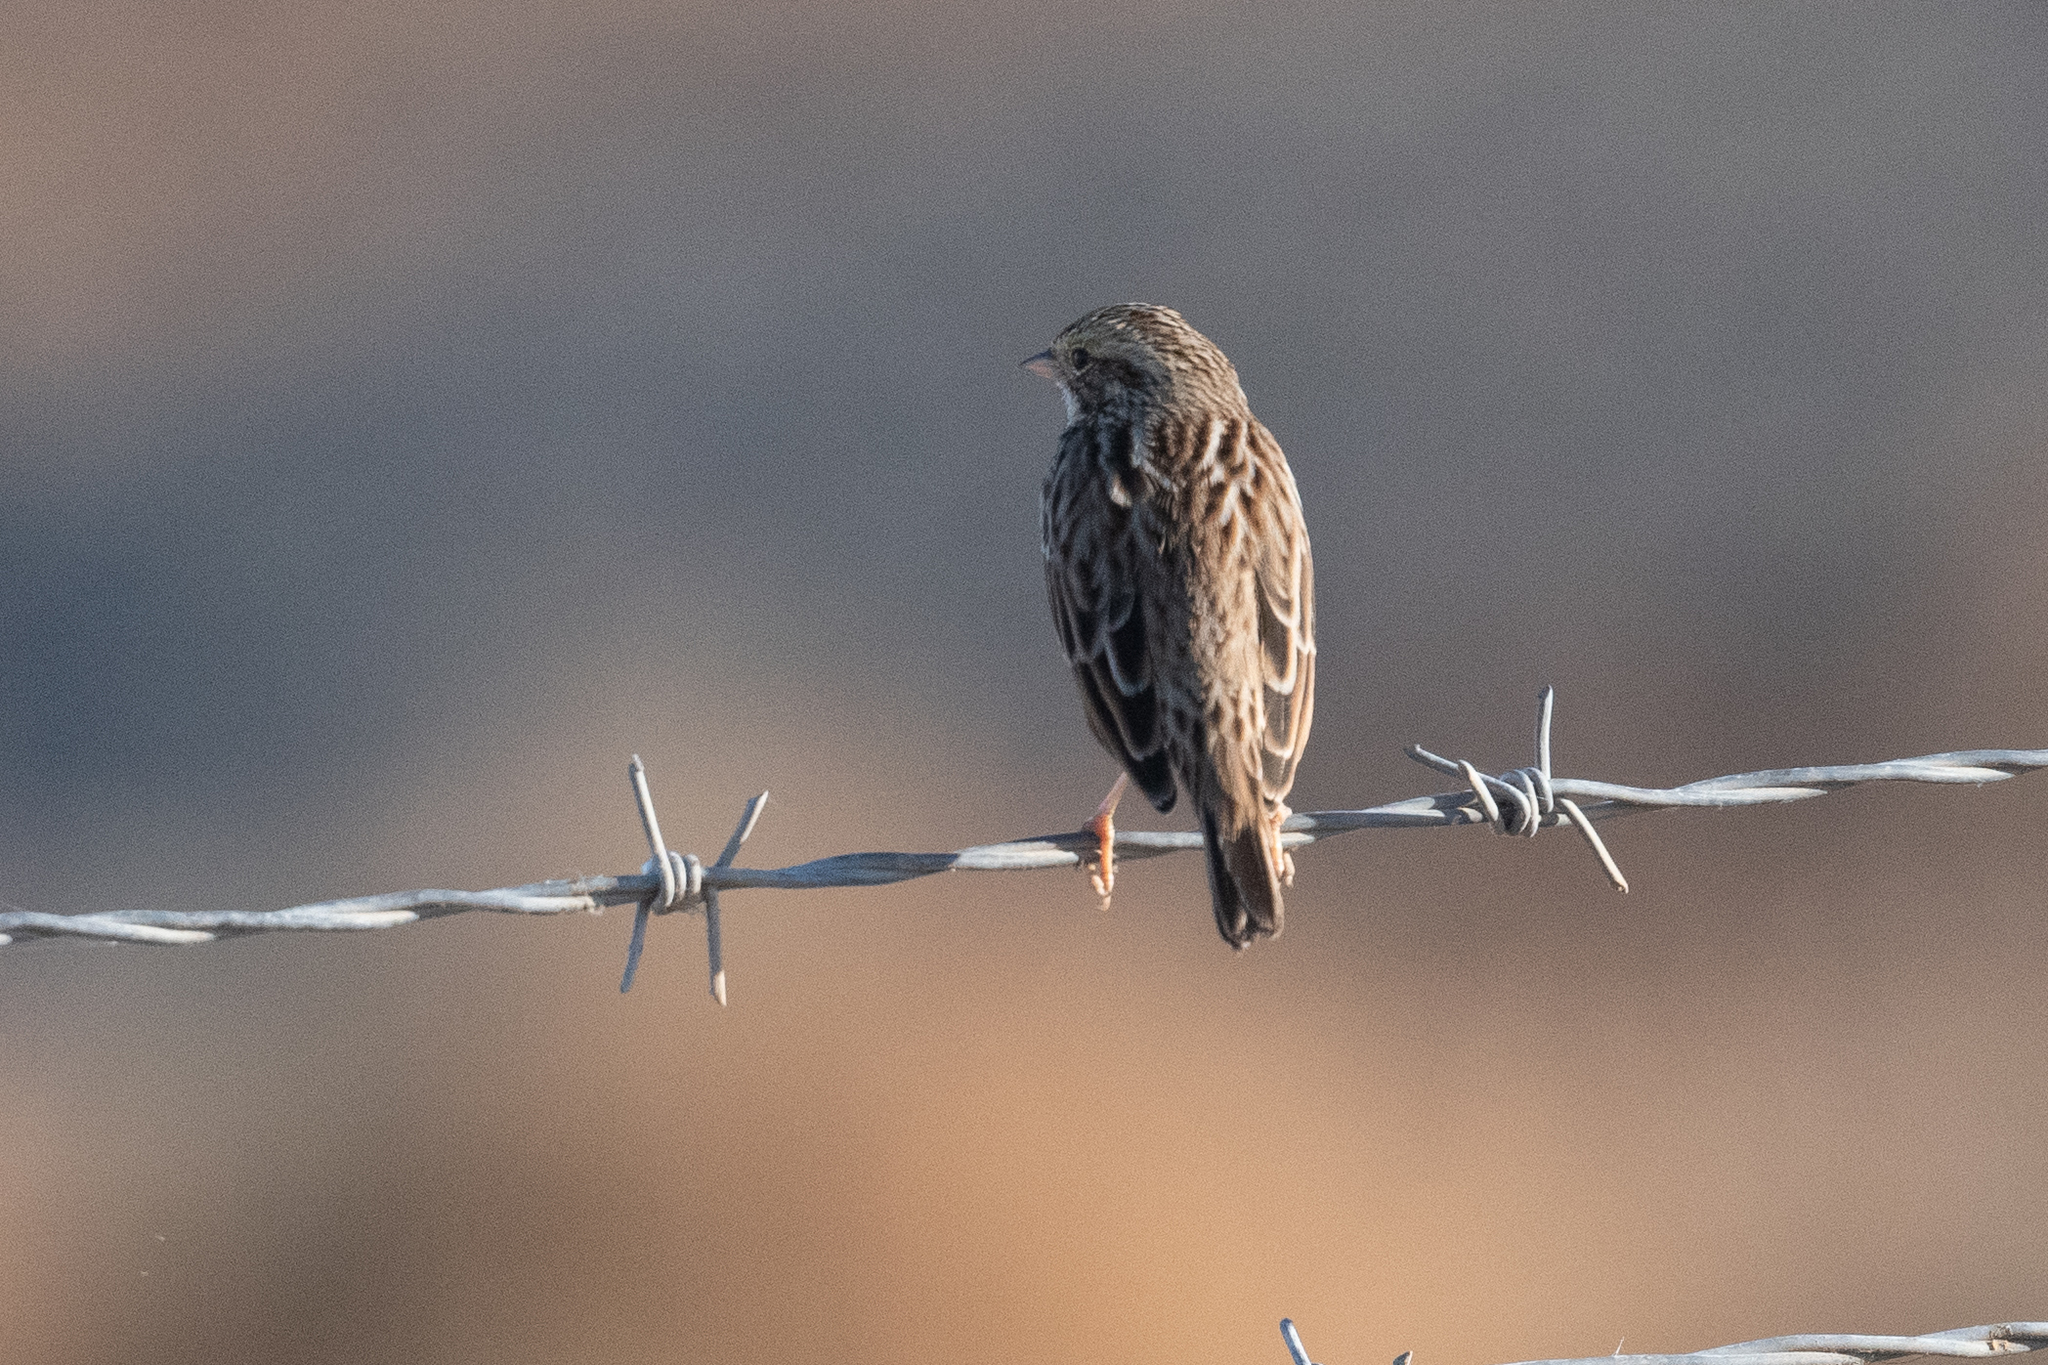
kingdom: Animalia
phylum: Chordata
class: Aves
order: Passeriformes
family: Passerellidae
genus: Passerculus
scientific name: Passerculus sandwichensis
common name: Savannah sparrow
